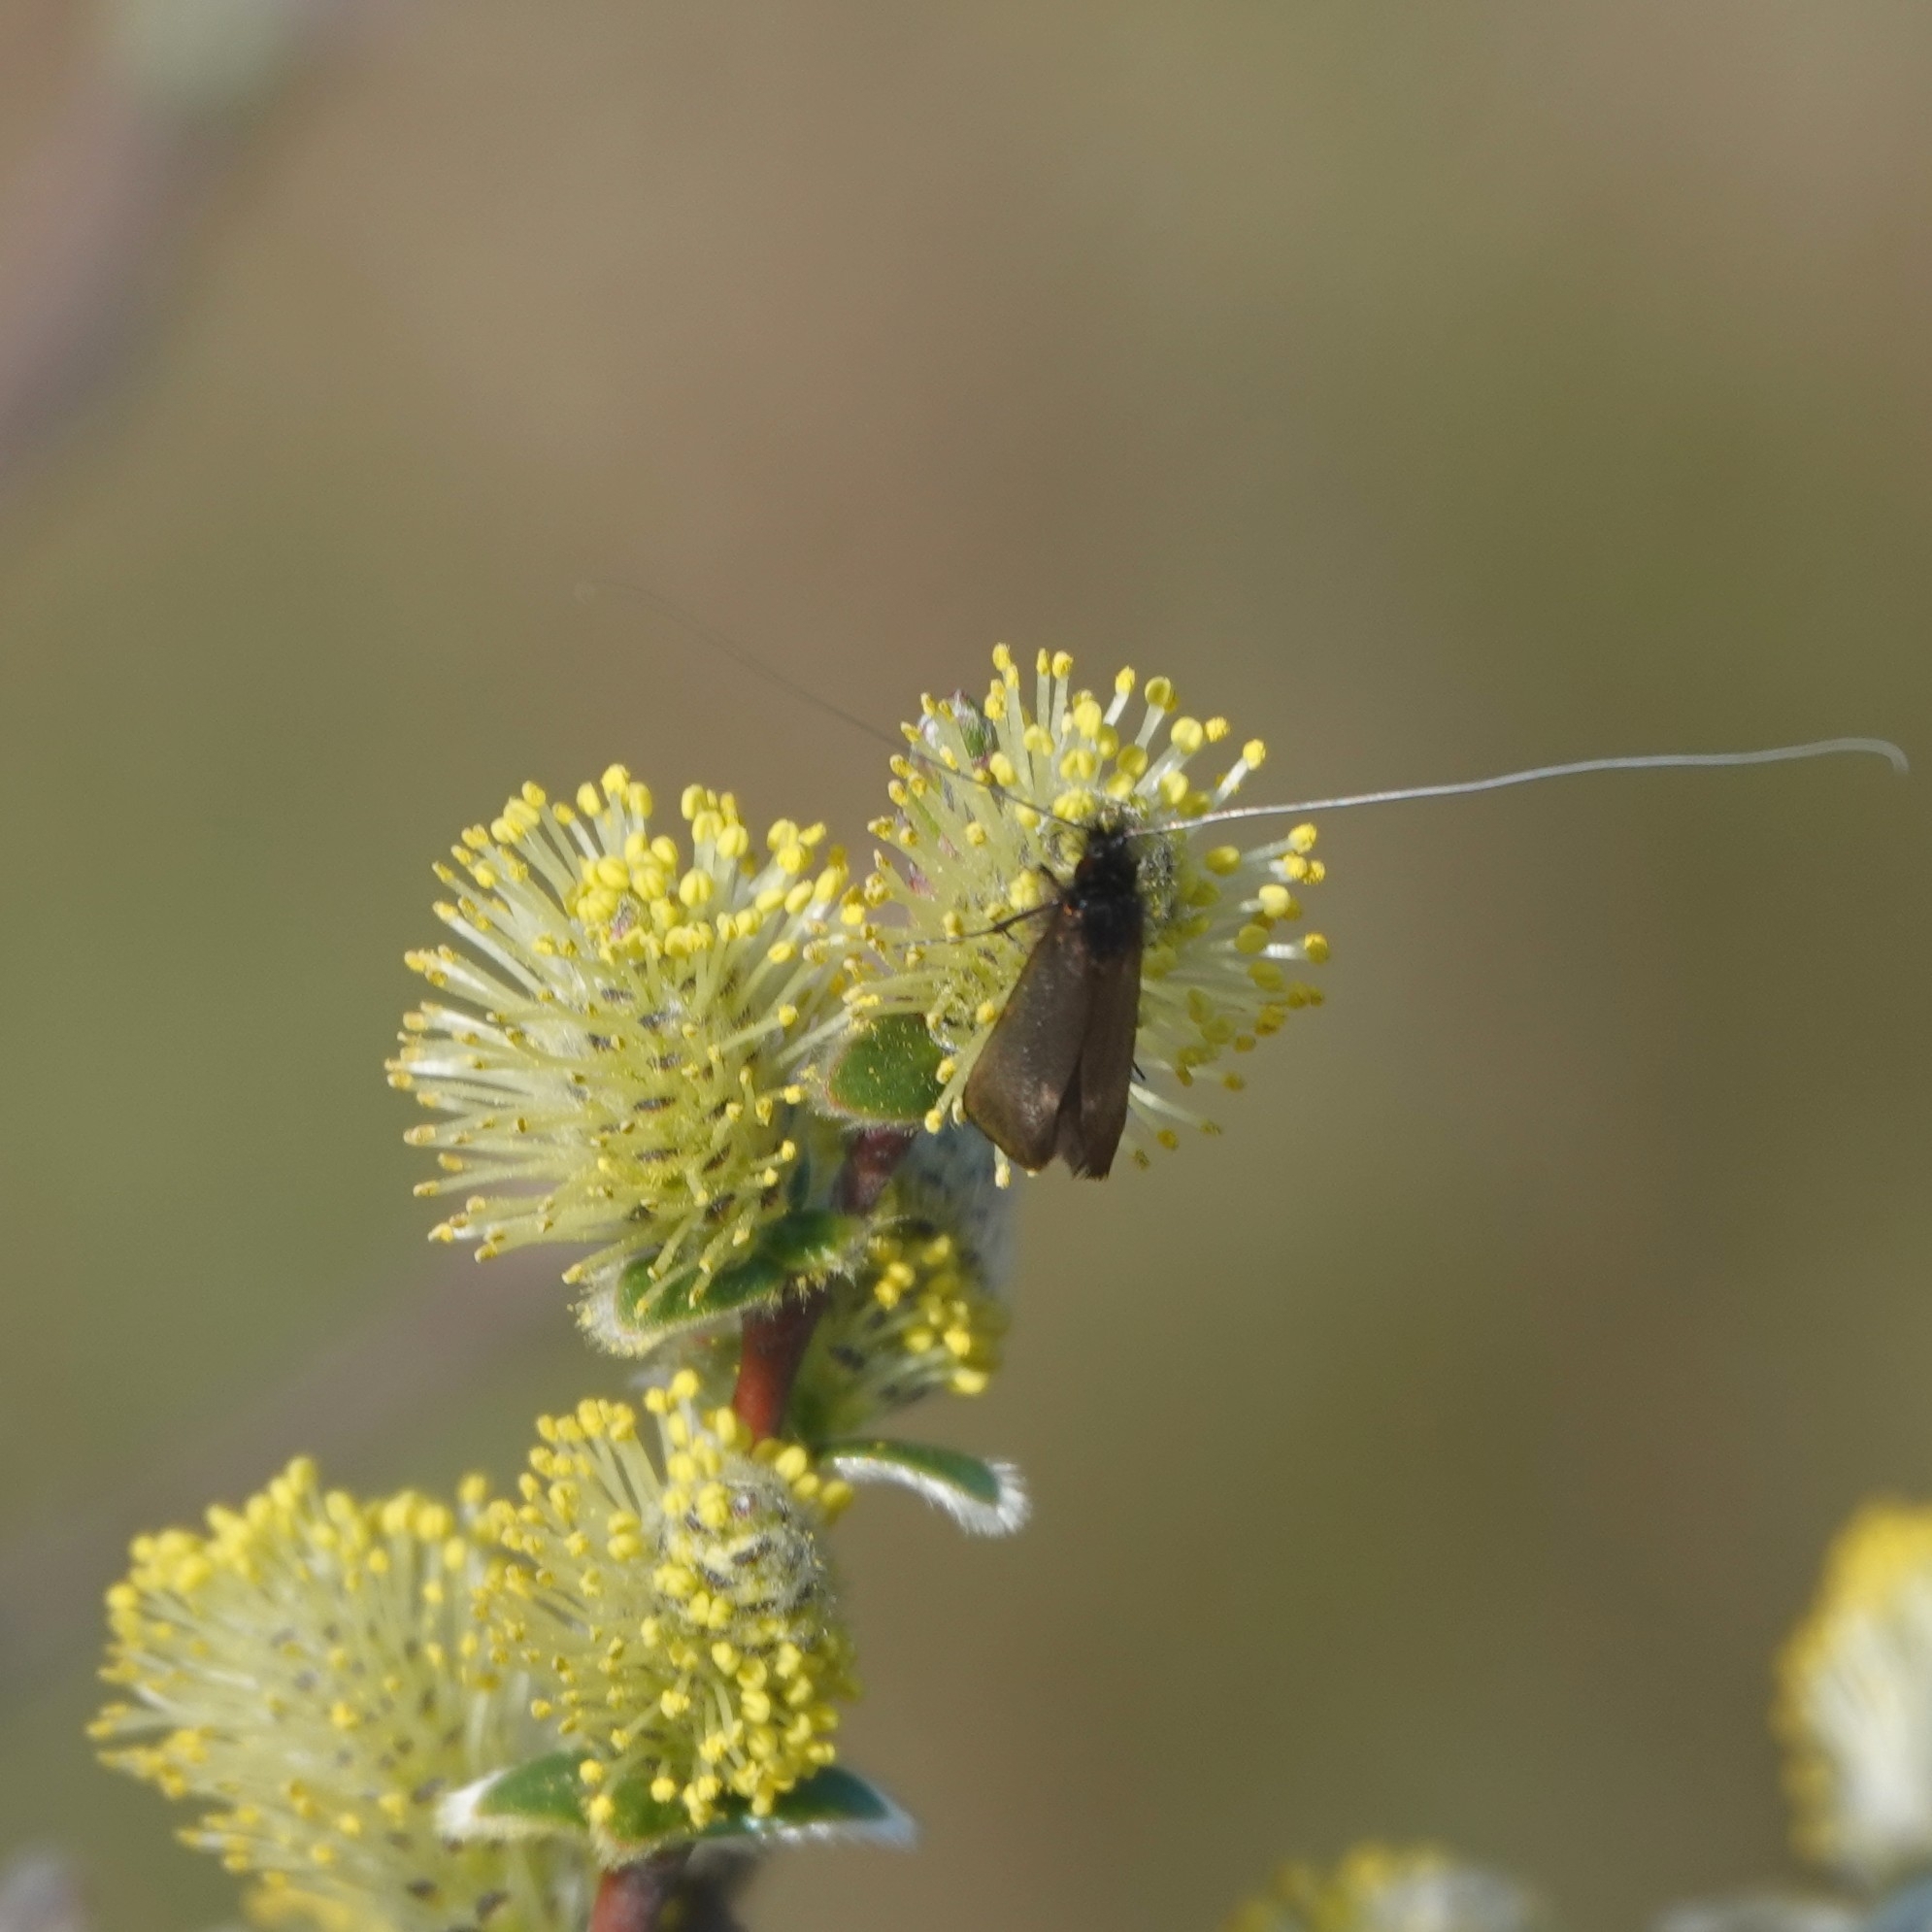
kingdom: Animalia
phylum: Arthropoda
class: Insecta
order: Lepidoptera
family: Adelidae
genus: Adela
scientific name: Adela cuprella
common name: Early long-horn
